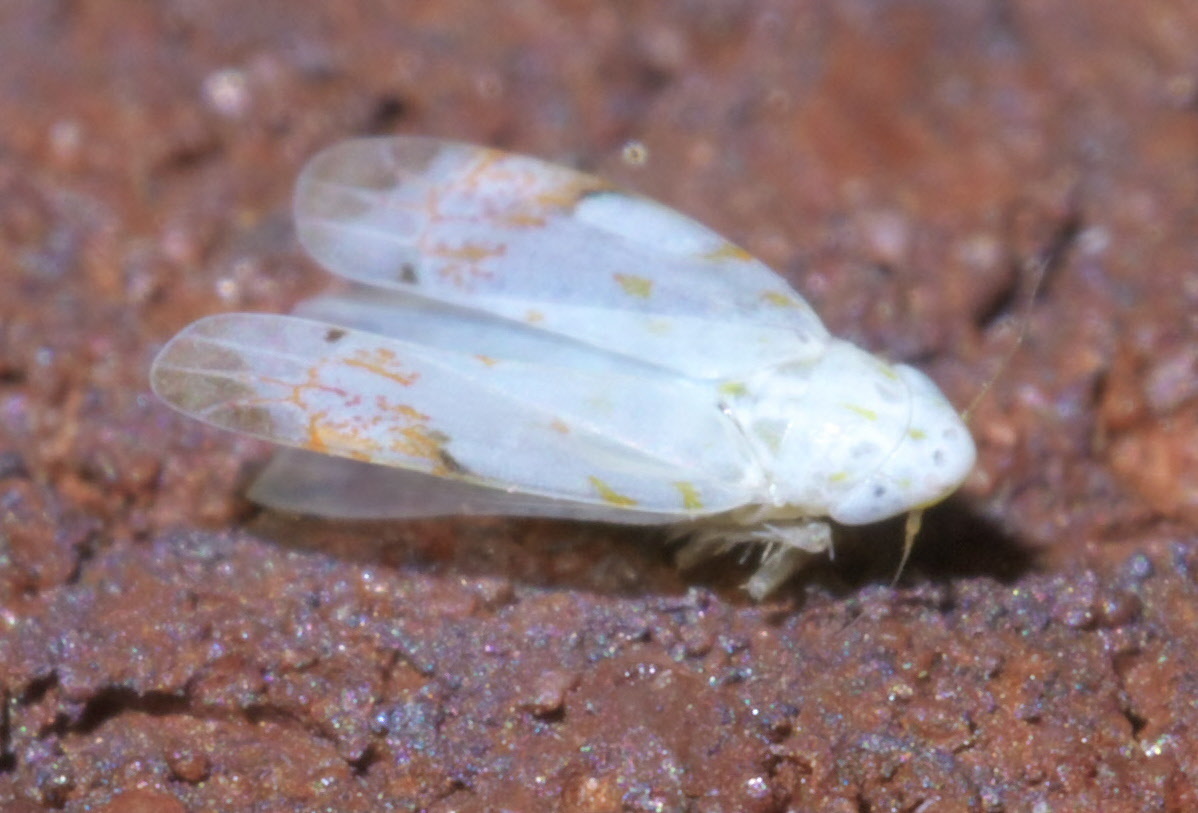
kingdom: Animalia
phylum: Arthropoda
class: Insecta
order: Hemiptera
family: Cicadellidae
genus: Eratoneura
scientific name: Eratoneura stephensoni
